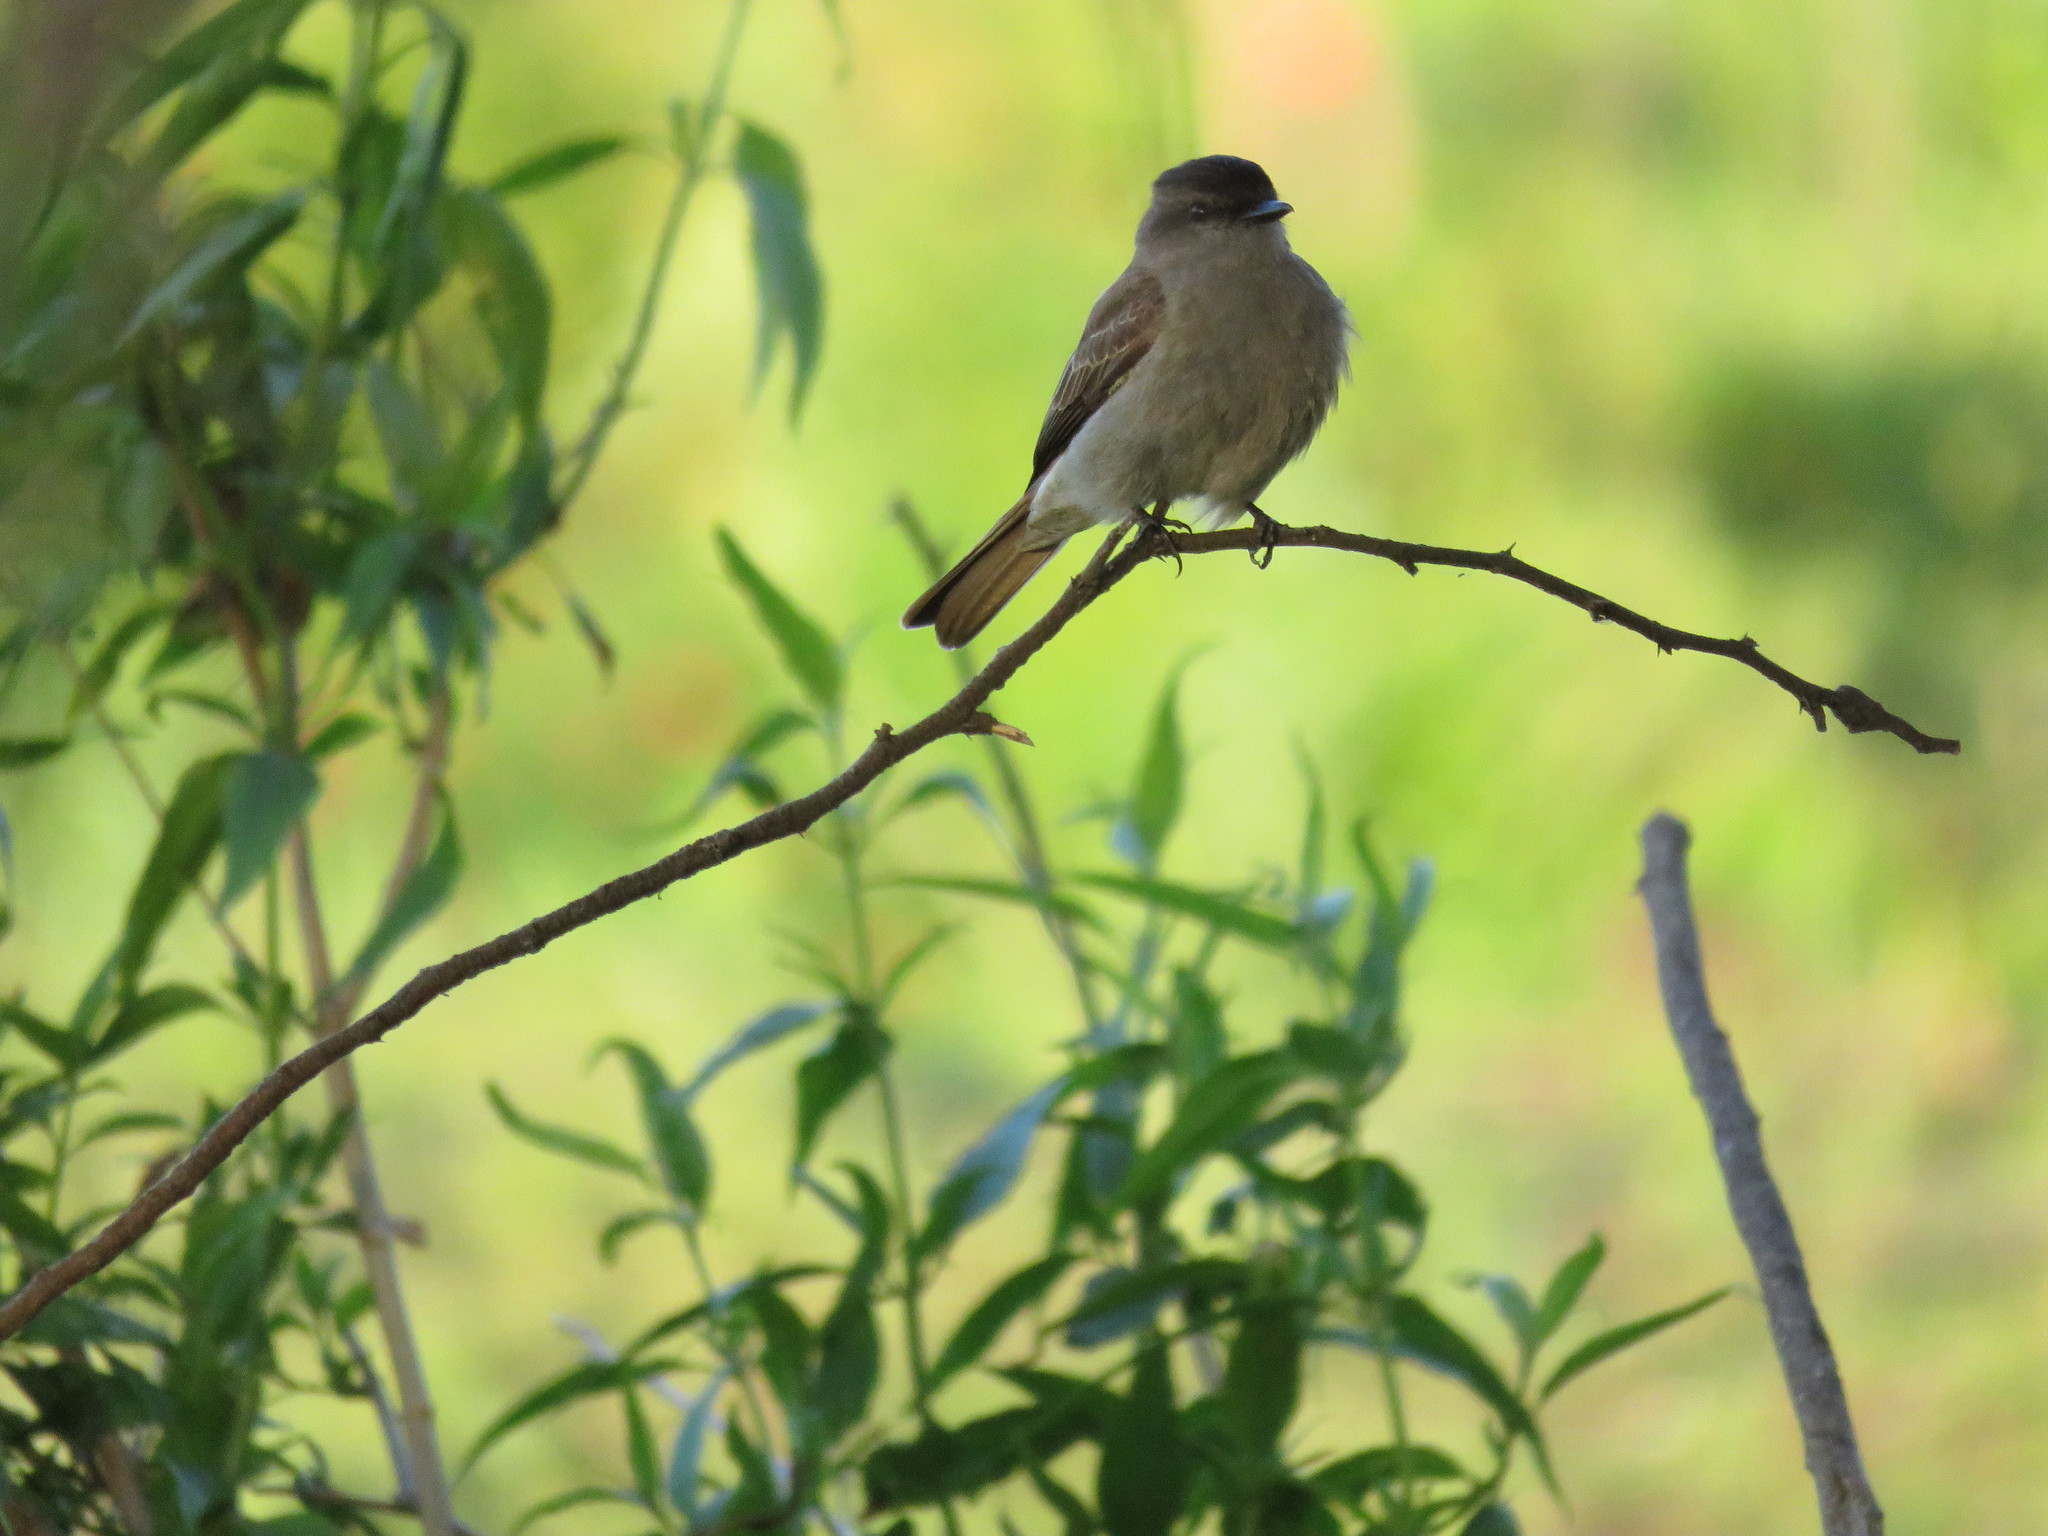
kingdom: Animalia
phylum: Chordata
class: Aves
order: Passeriformes
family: Tyrannidae
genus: Empidonomus
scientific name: Empidonomus aurantioatrocristatus
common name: Crowned slaty flycatcher
